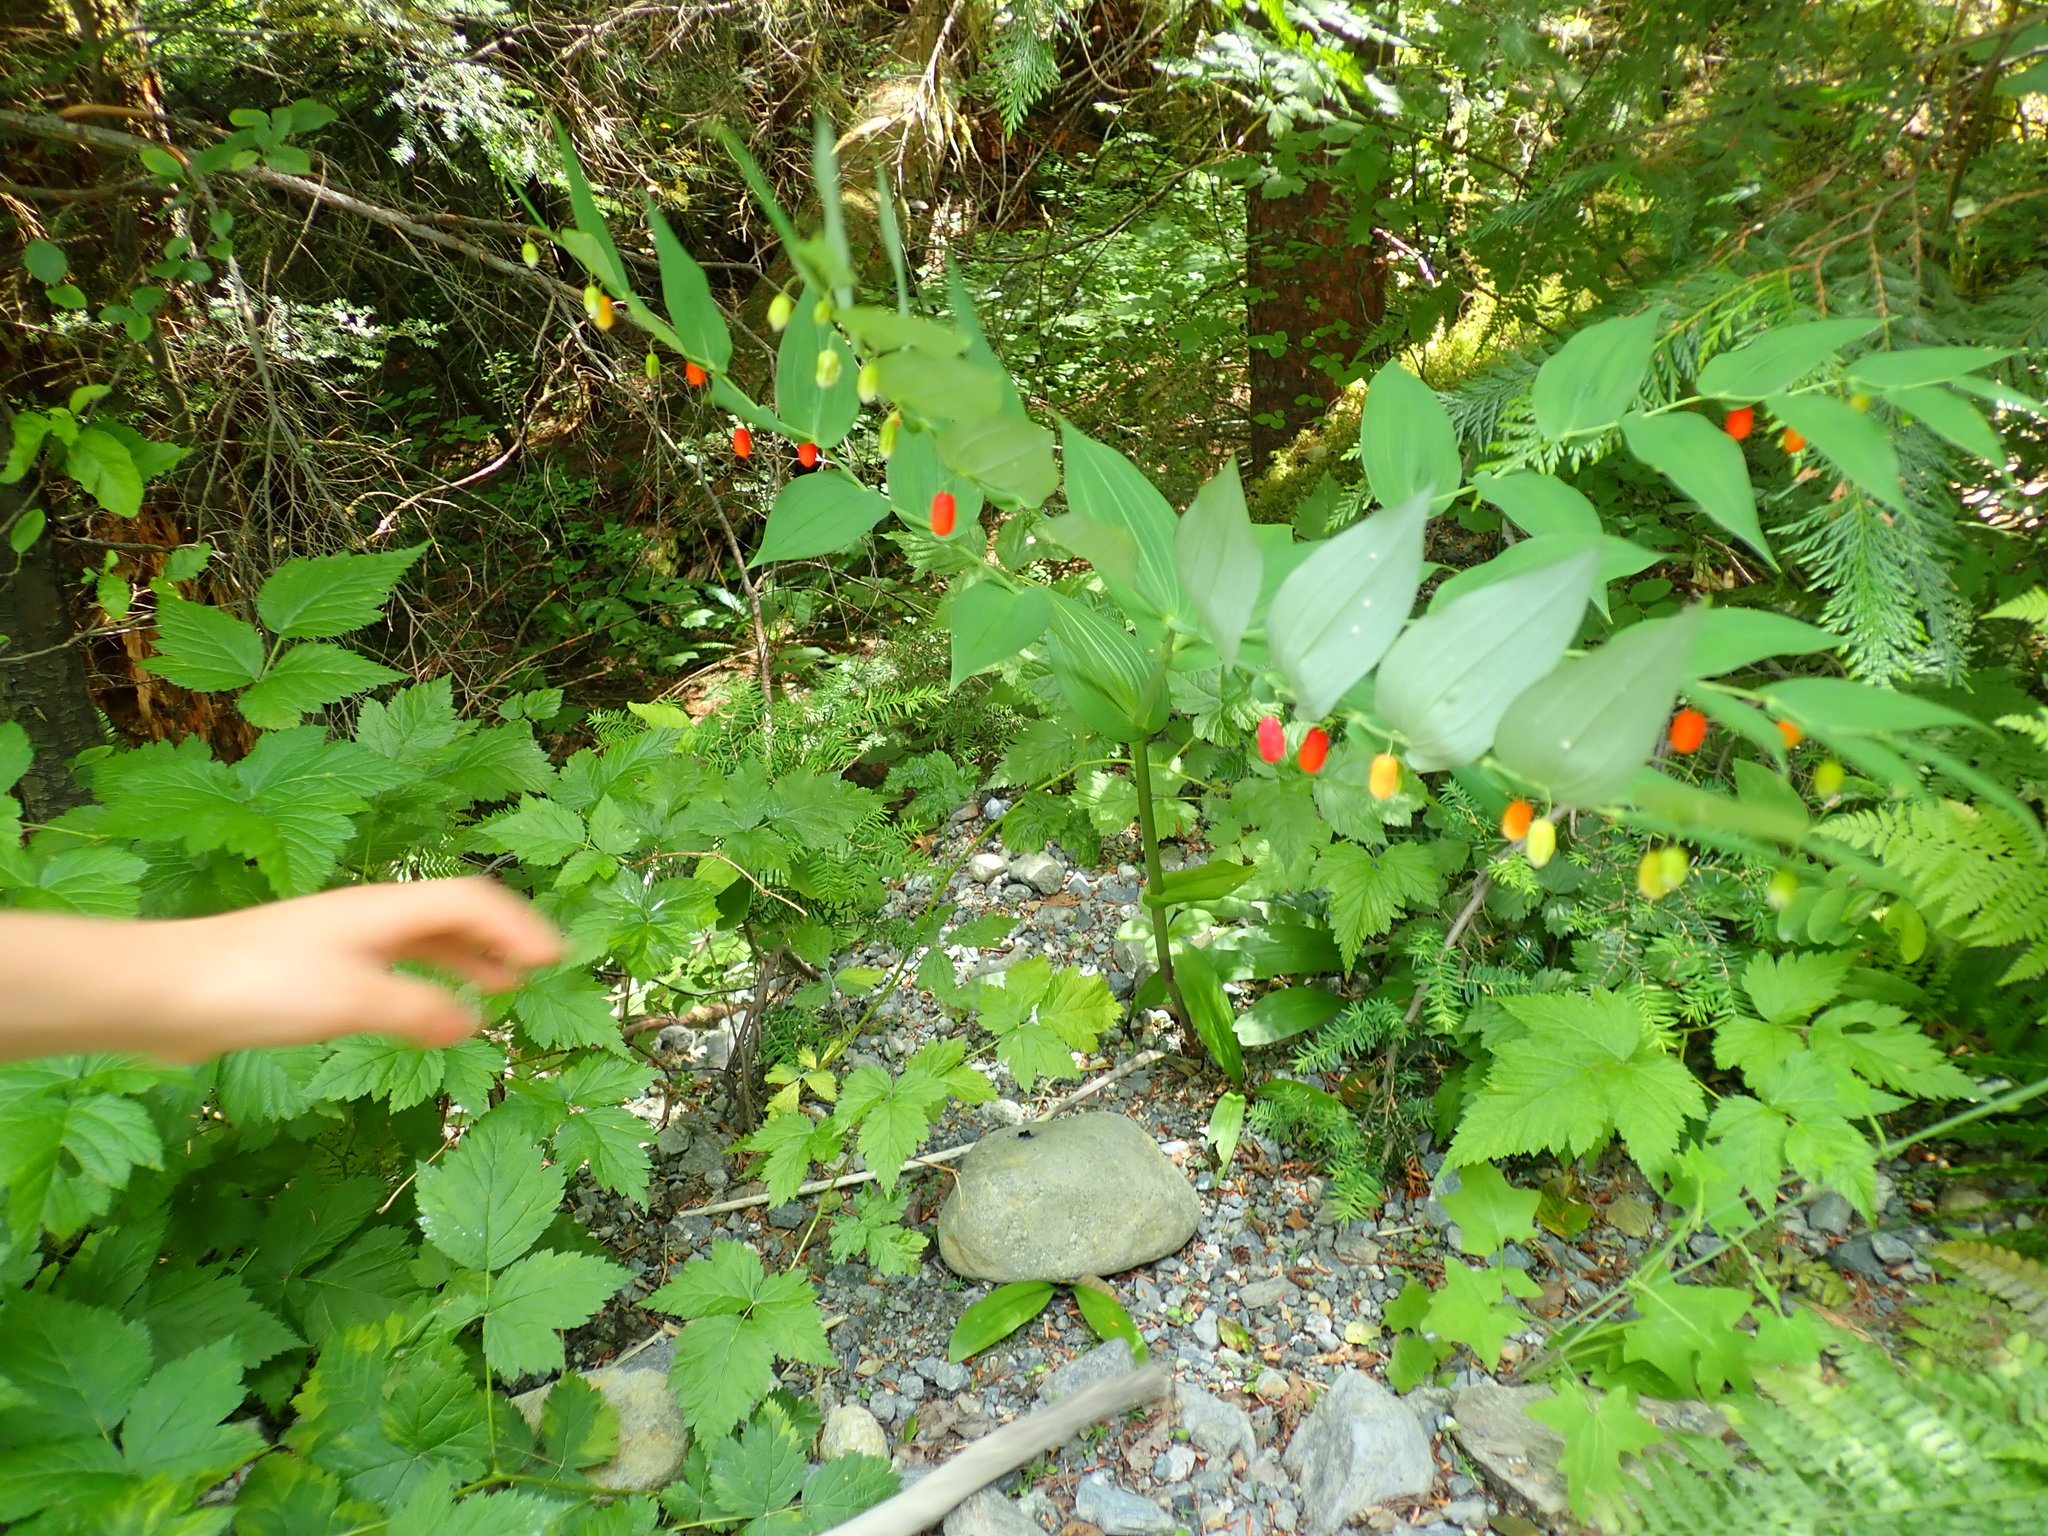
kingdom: Plantae
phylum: Tracheophyta
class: Liliopsida
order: Liliales
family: Liliaceae
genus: Streptopus
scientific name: Streptopus amplexifolius
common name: Clasp twisted stalk
